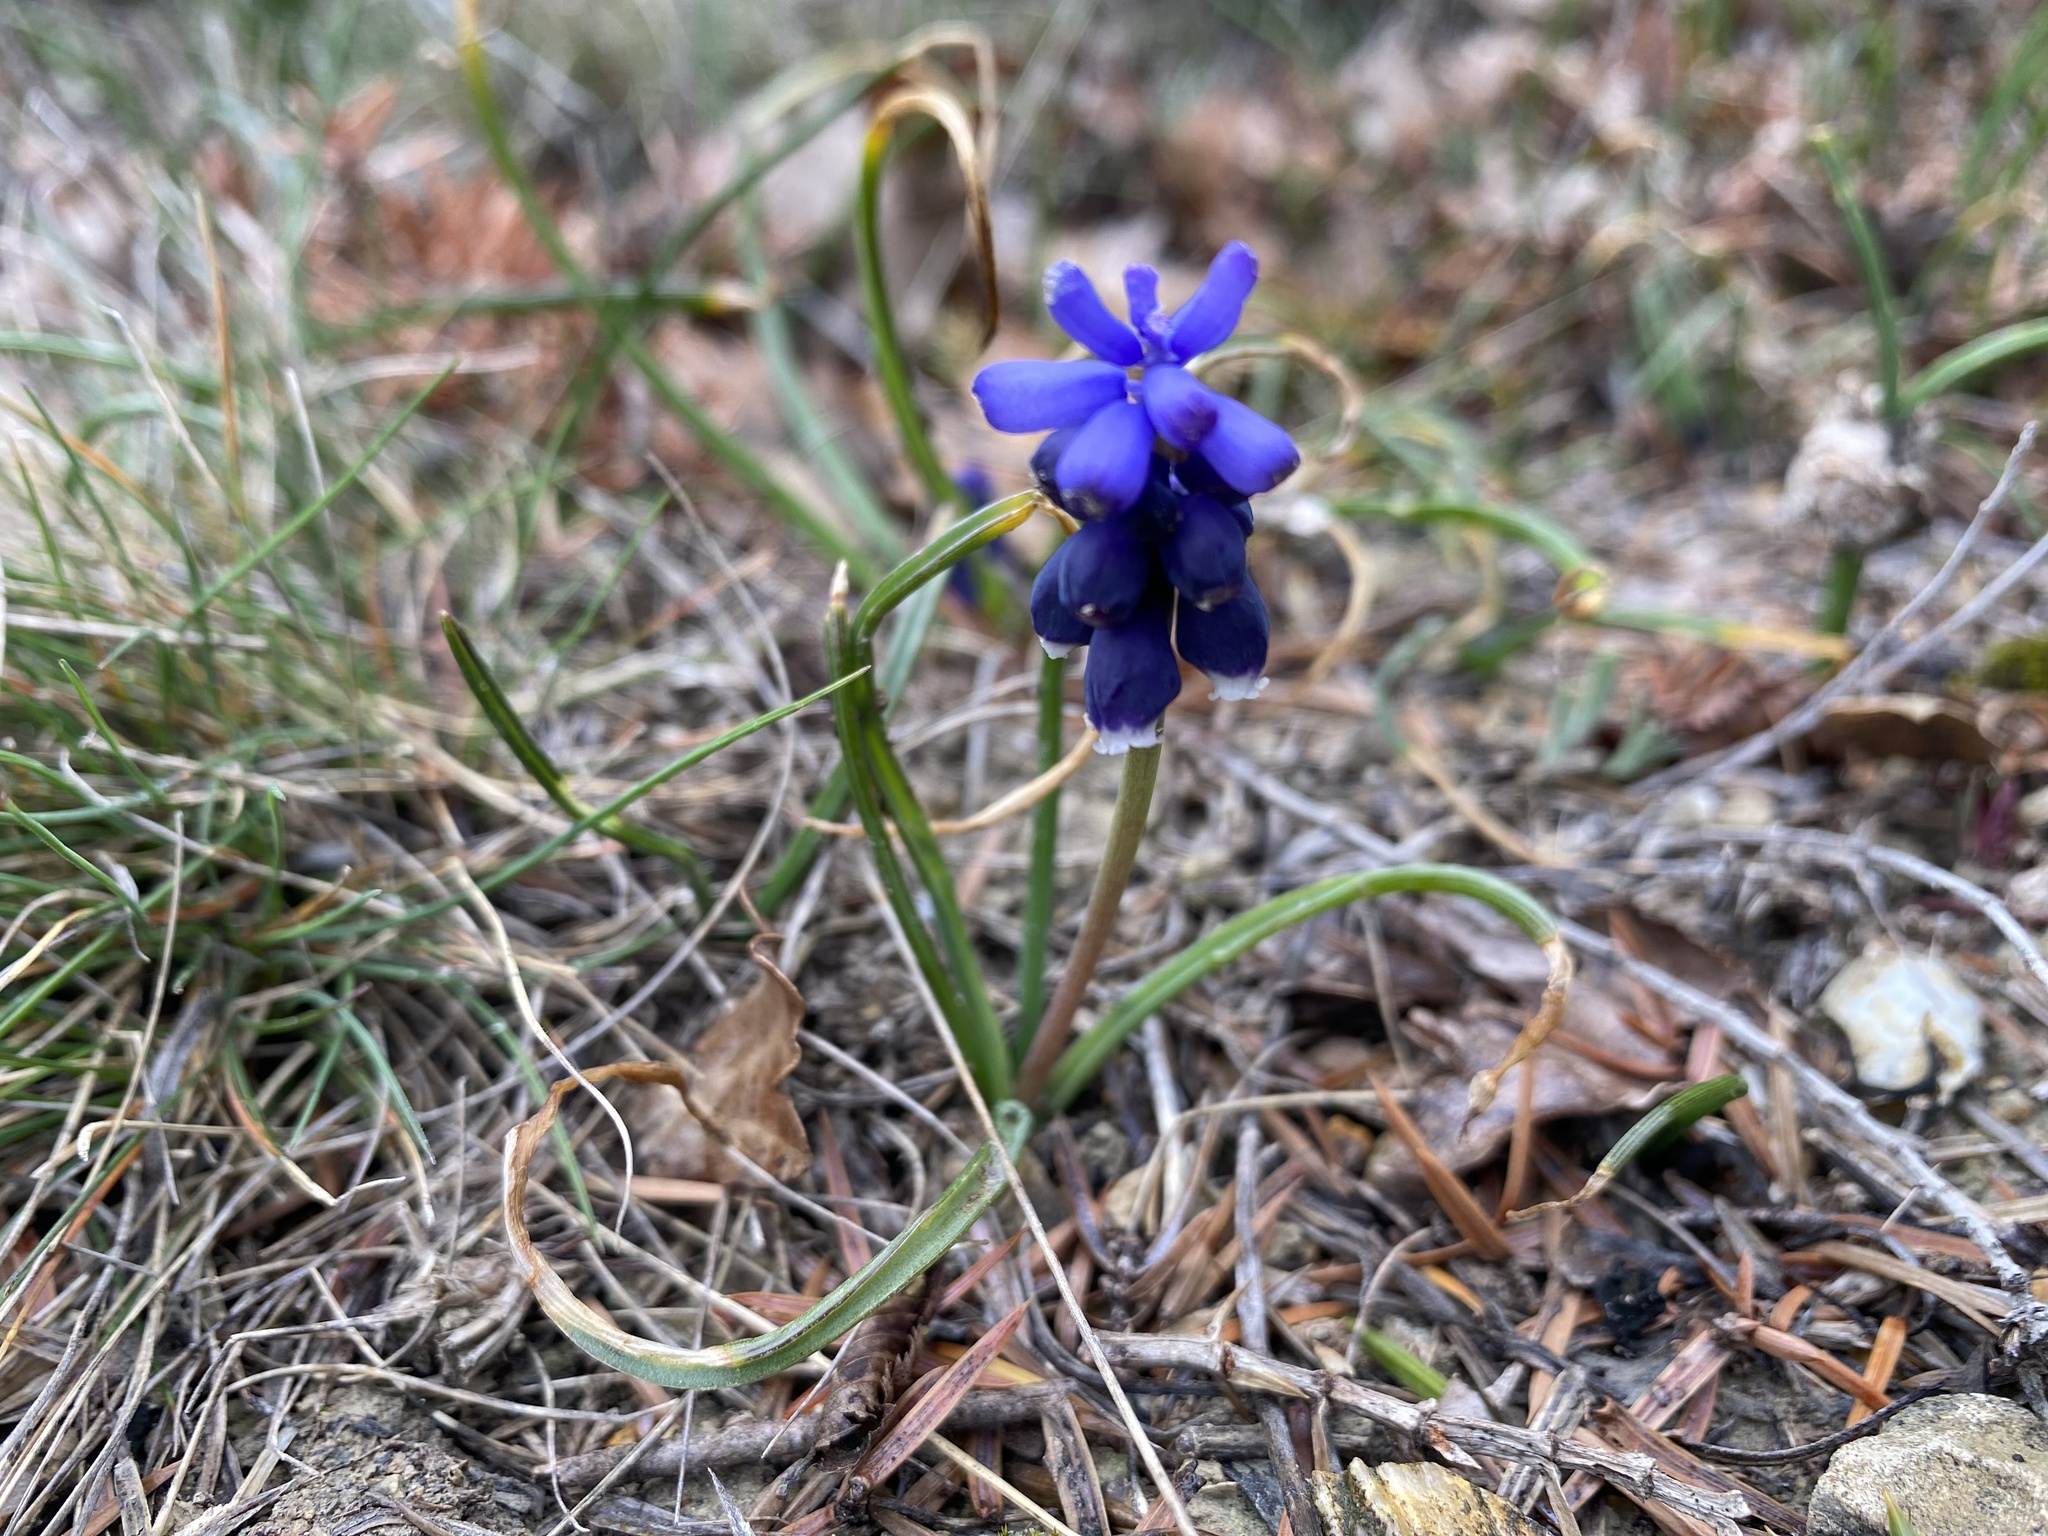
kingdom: Plantae
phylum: Tracheophyta
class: Liliopsida
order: Asparagales
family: Asparagaceae
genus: Muscari
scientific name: Muscari neglectum
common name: Grape-hyacinth
